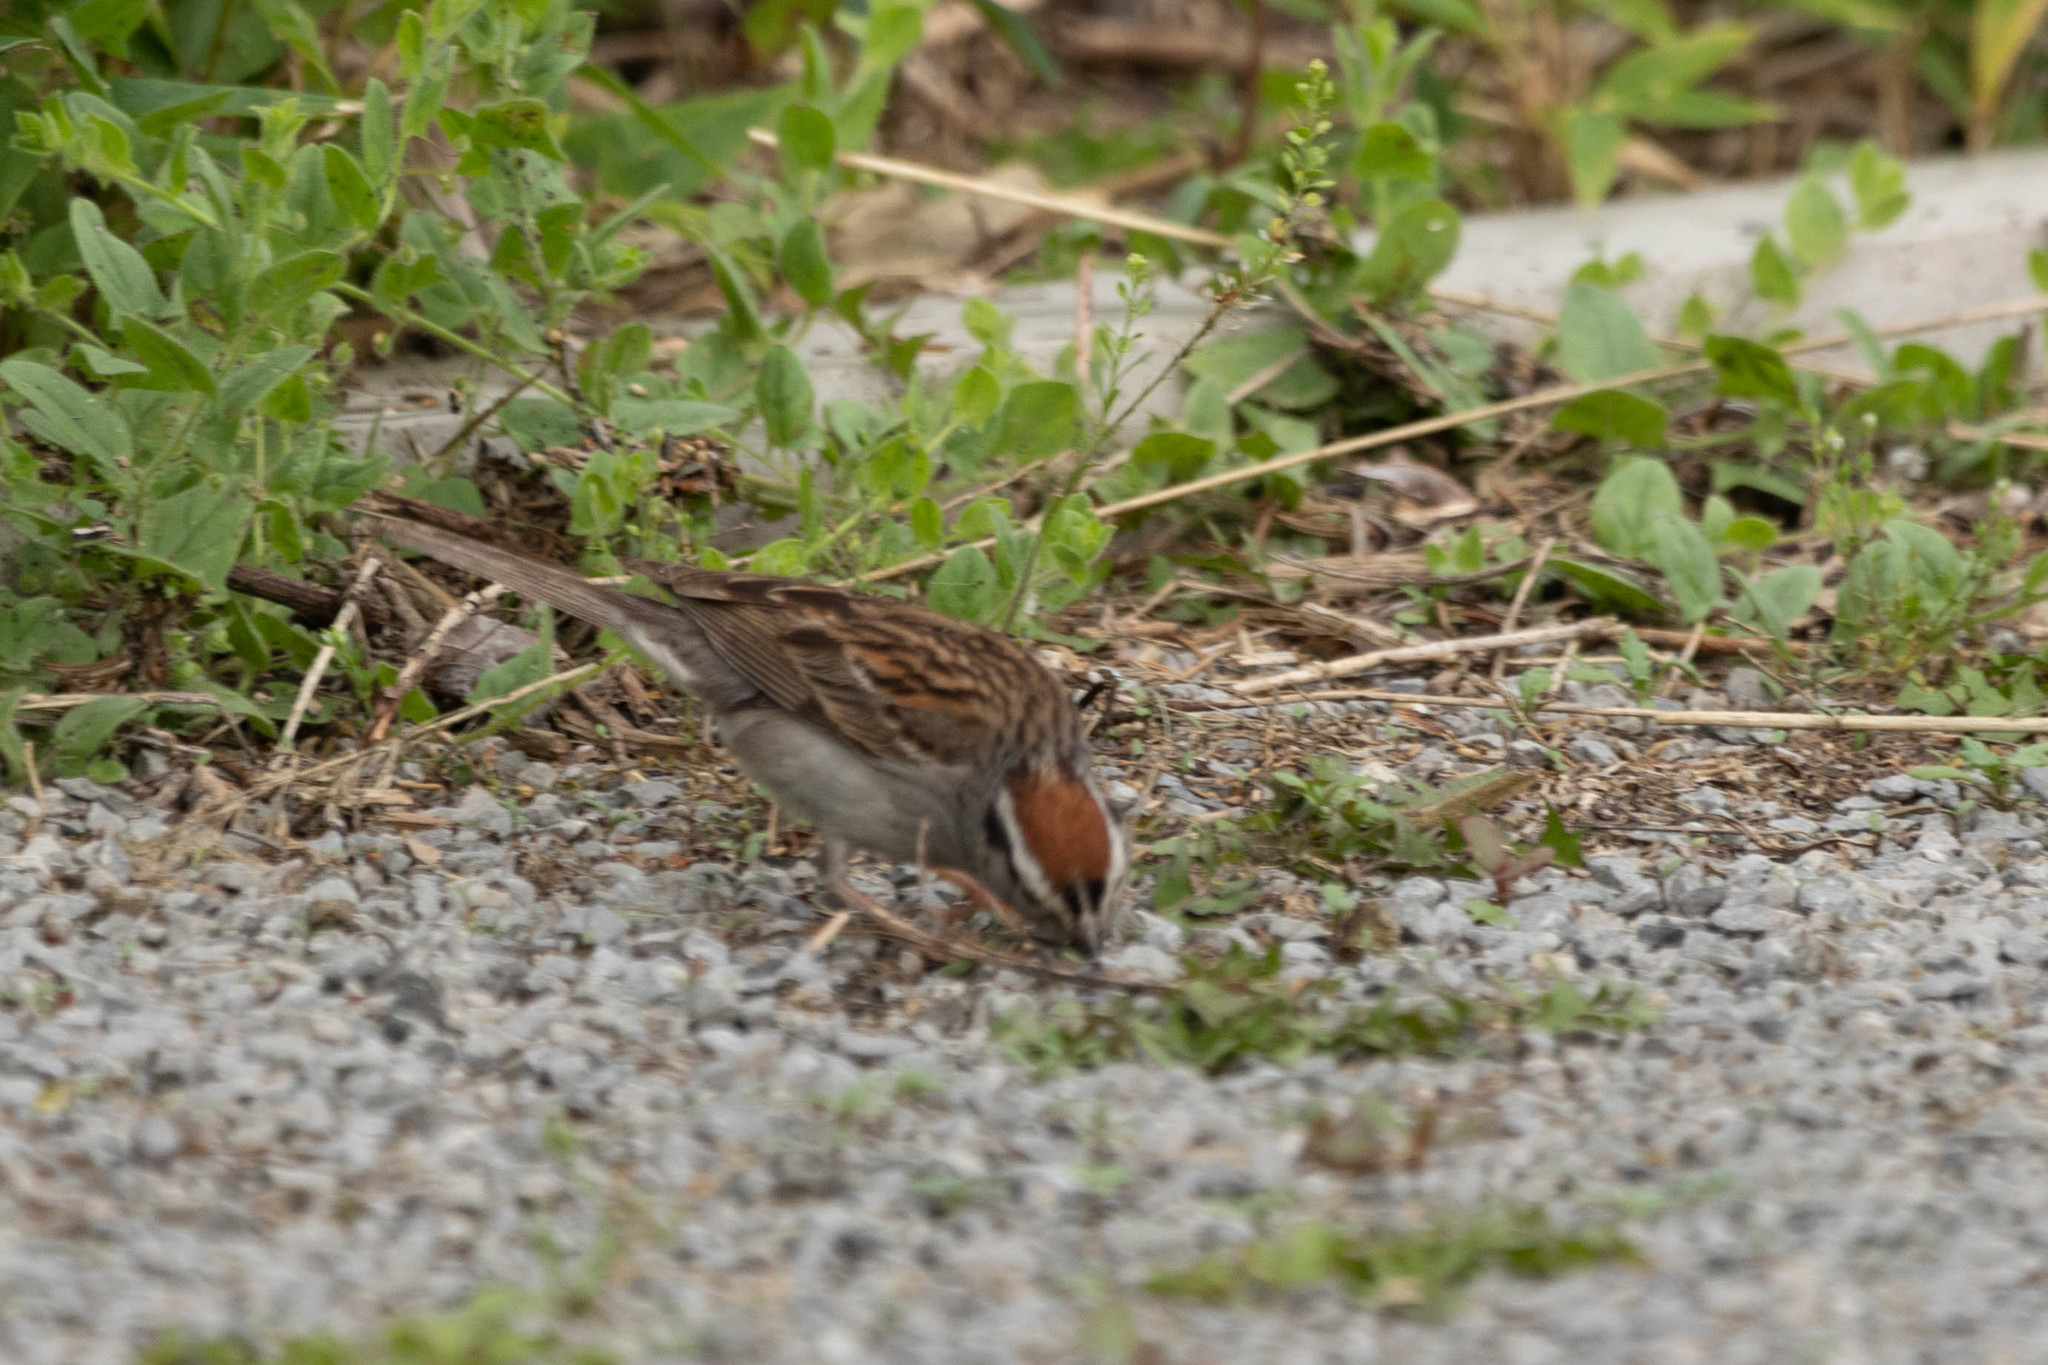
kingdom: Animalia
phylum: Chordata
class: Aves
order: Passeriformes
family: Passerellidae
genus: Spizella
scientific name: Spizella passerina
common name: Chipping sparrow
